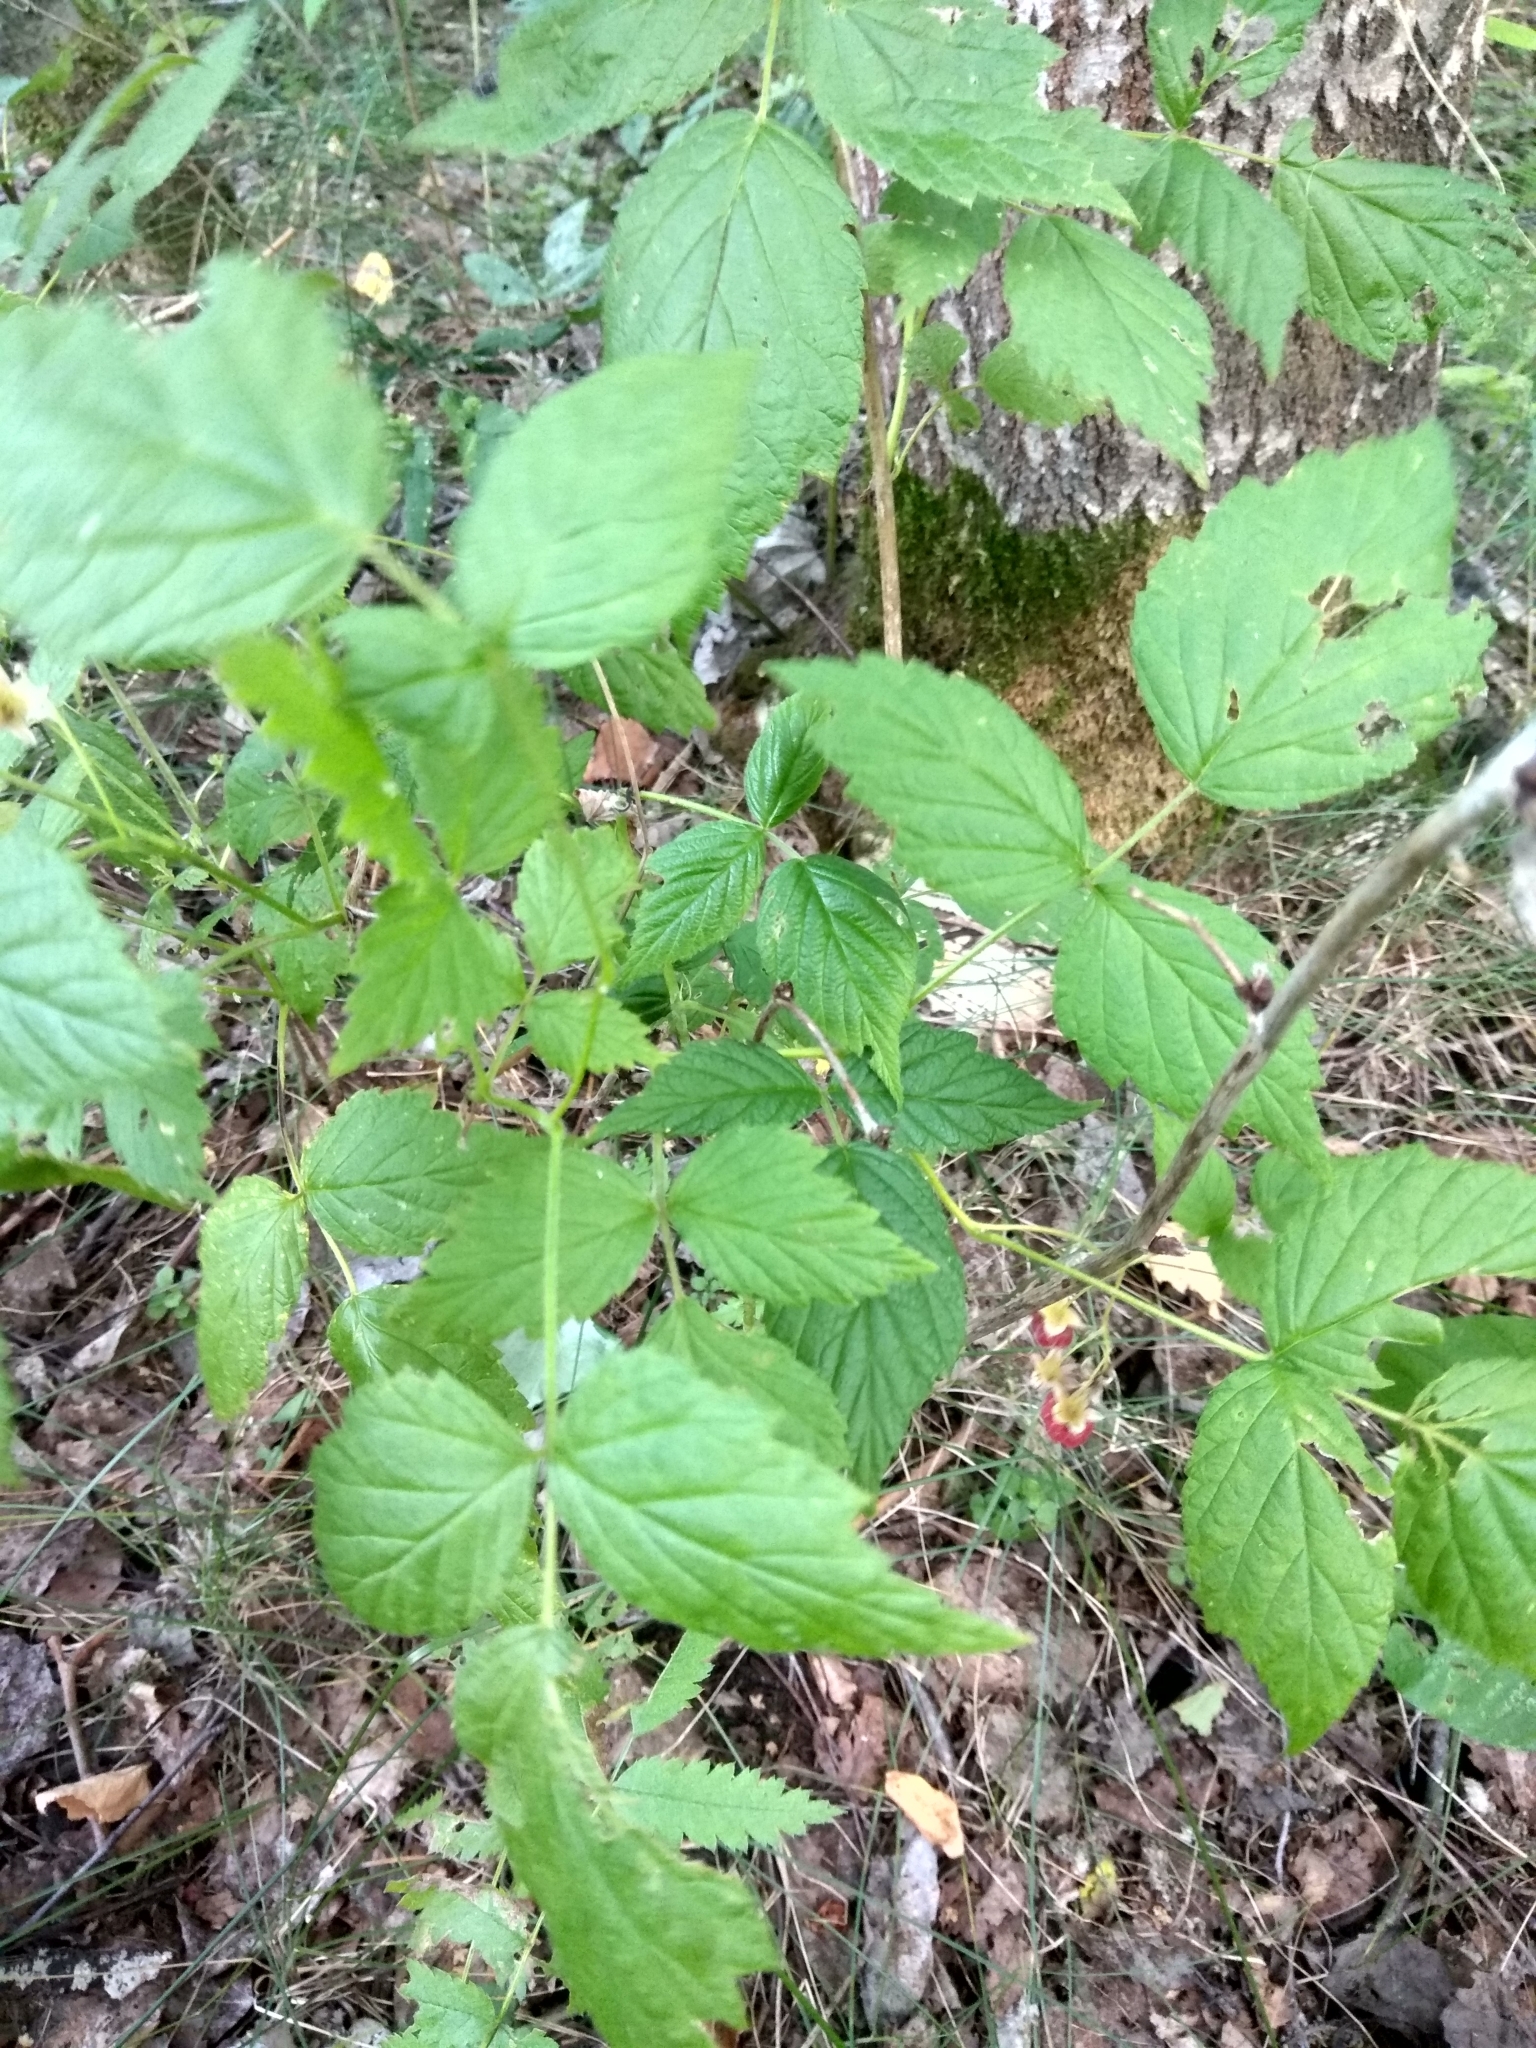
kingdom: Plantae
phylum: Tracheophyta
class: Magnoliopsida
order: Rosales
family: Rosaceae
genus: Rubus
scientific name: Rubus idaeus
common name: Raspberry
